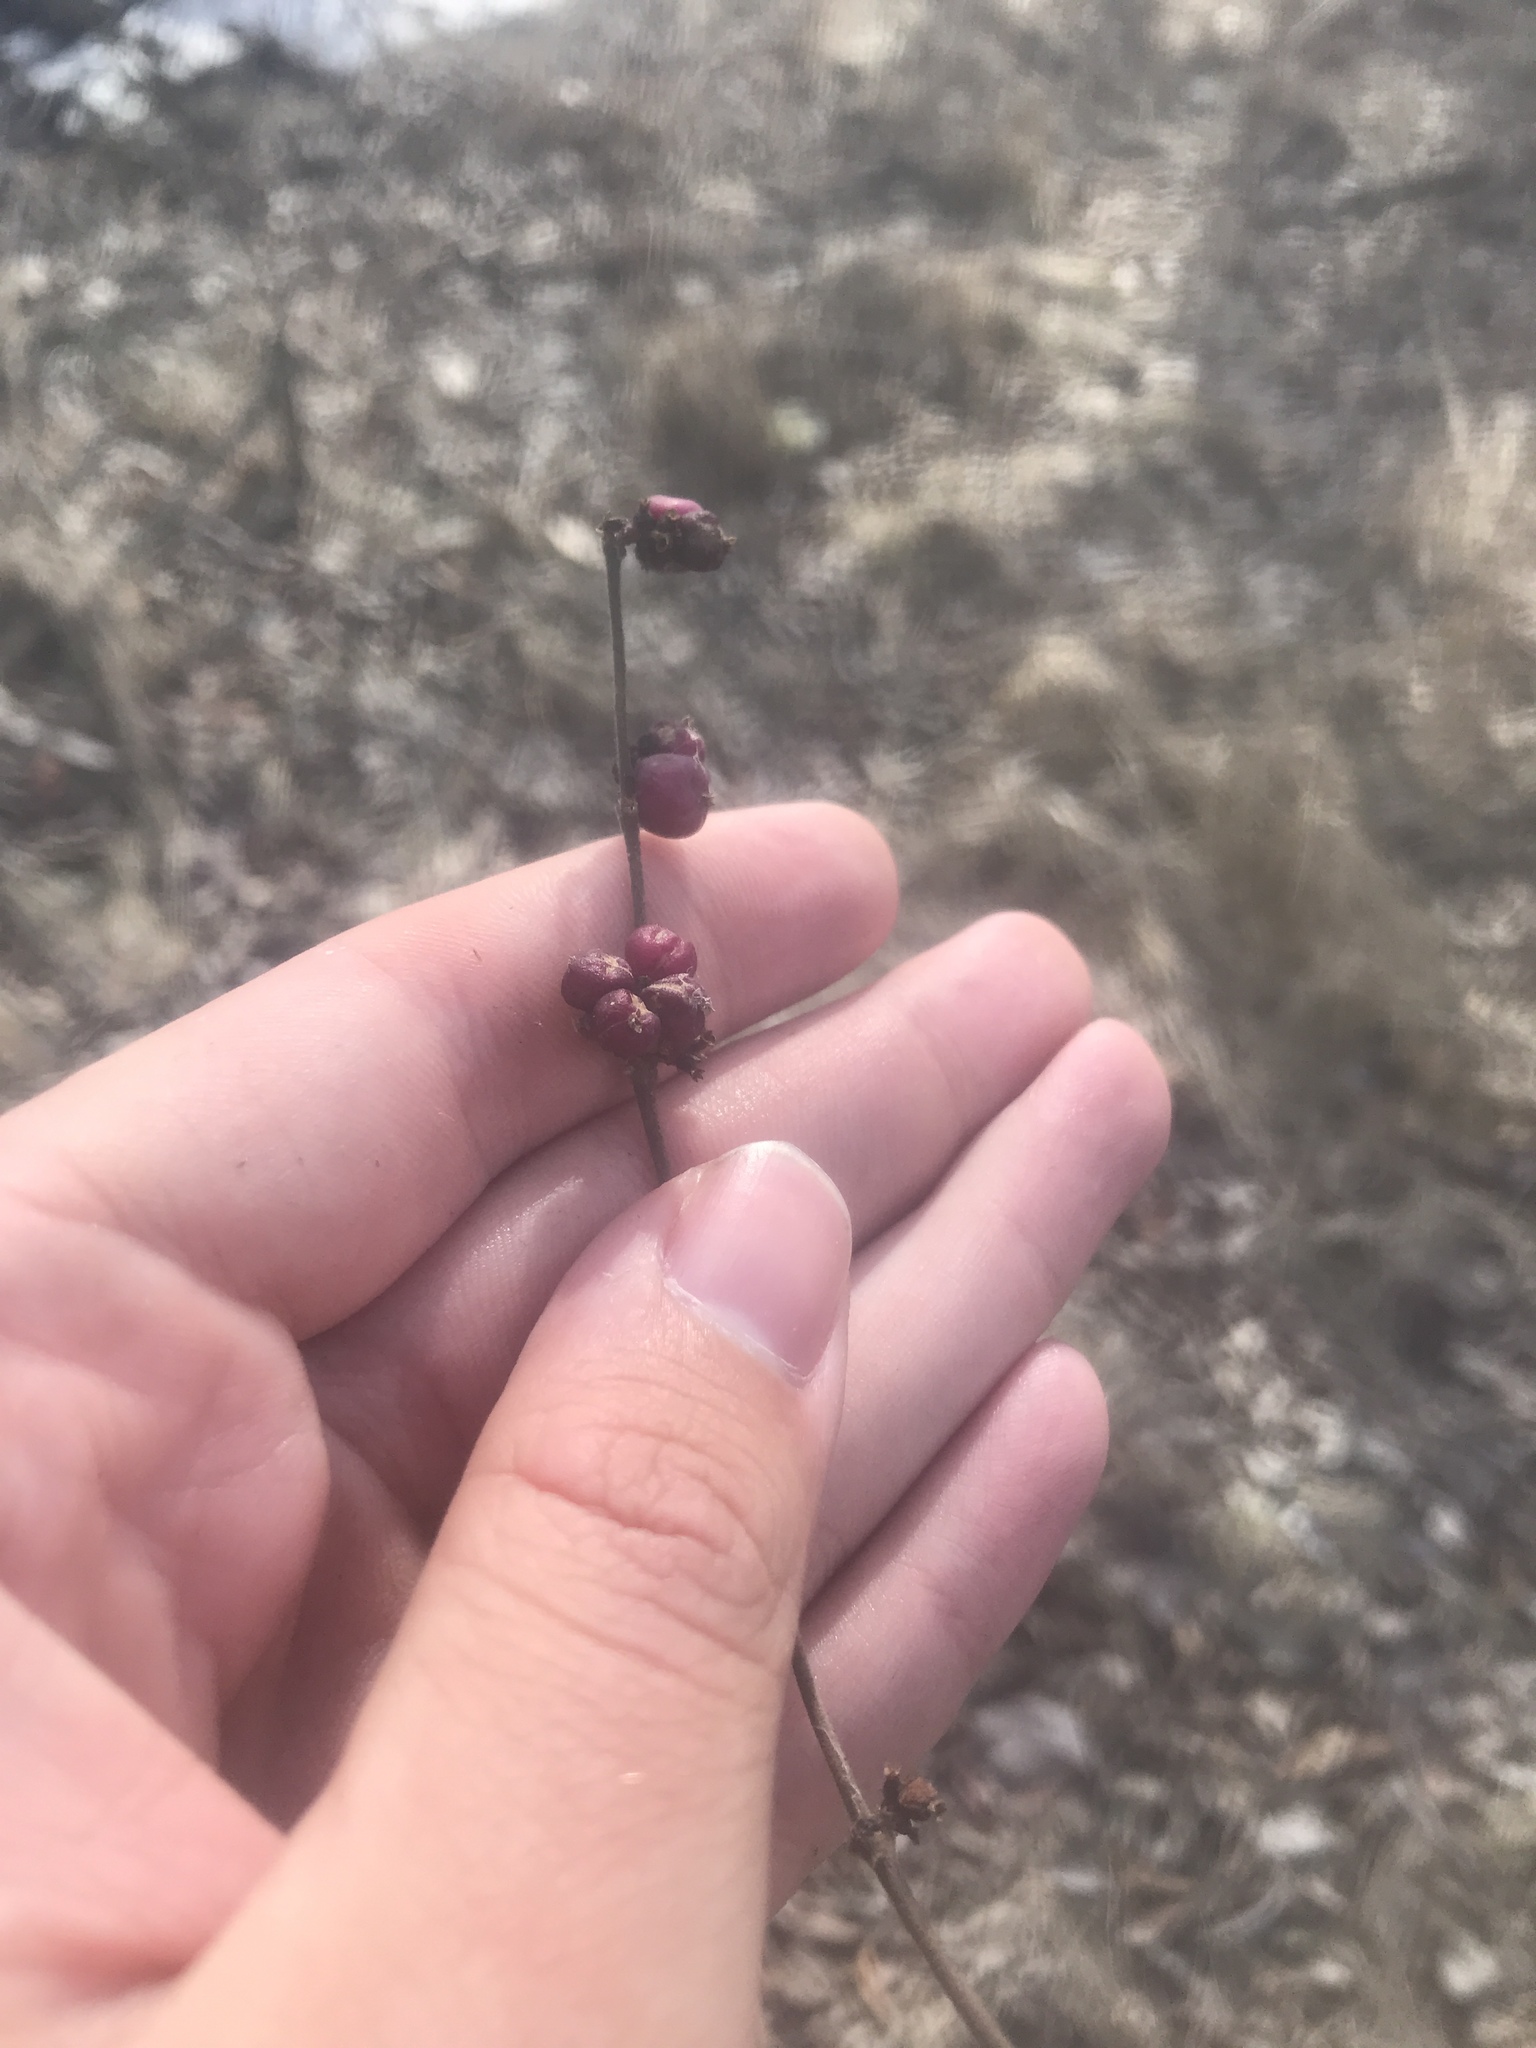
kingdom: Plantae
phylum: Tracheophyta
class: Magnoliopsida
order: Dipsacales
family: Caprifoliaceae
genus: Symphoricarpos
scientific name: Symphoricarpos orbiculatus
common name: Coralberry
